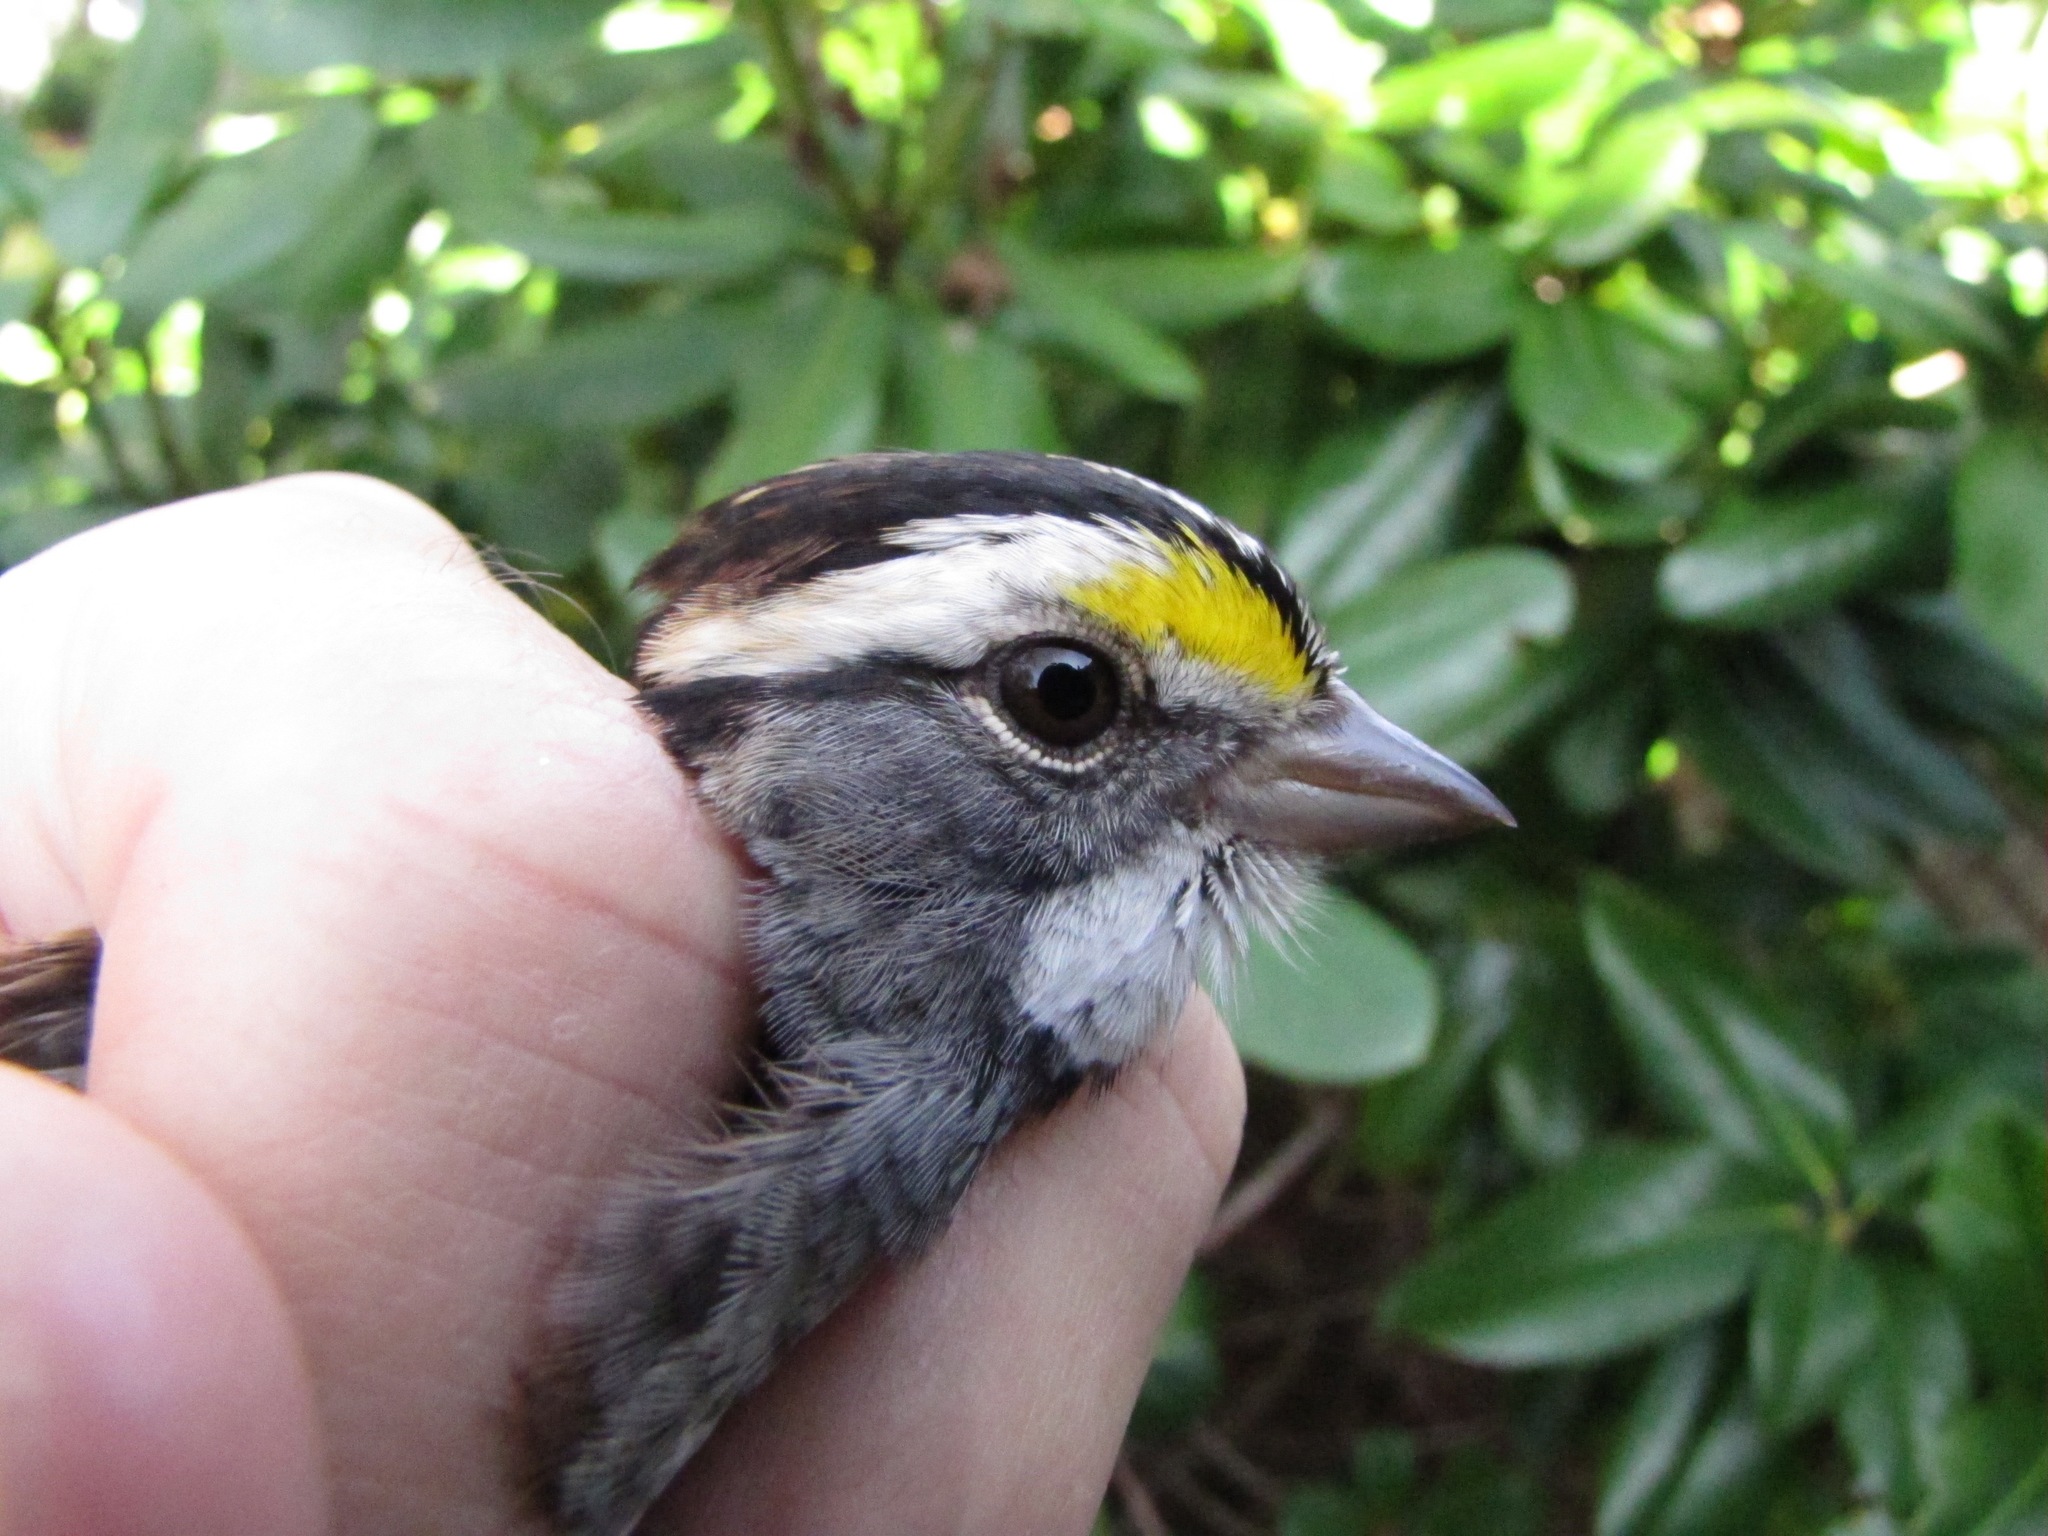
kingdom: Animalia
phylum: Chordata
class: Aves
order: Passeriformes
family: Passerellidae
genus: Zonotrichia
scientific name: Zonotrichia albicollis
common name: White-throated sparrow
